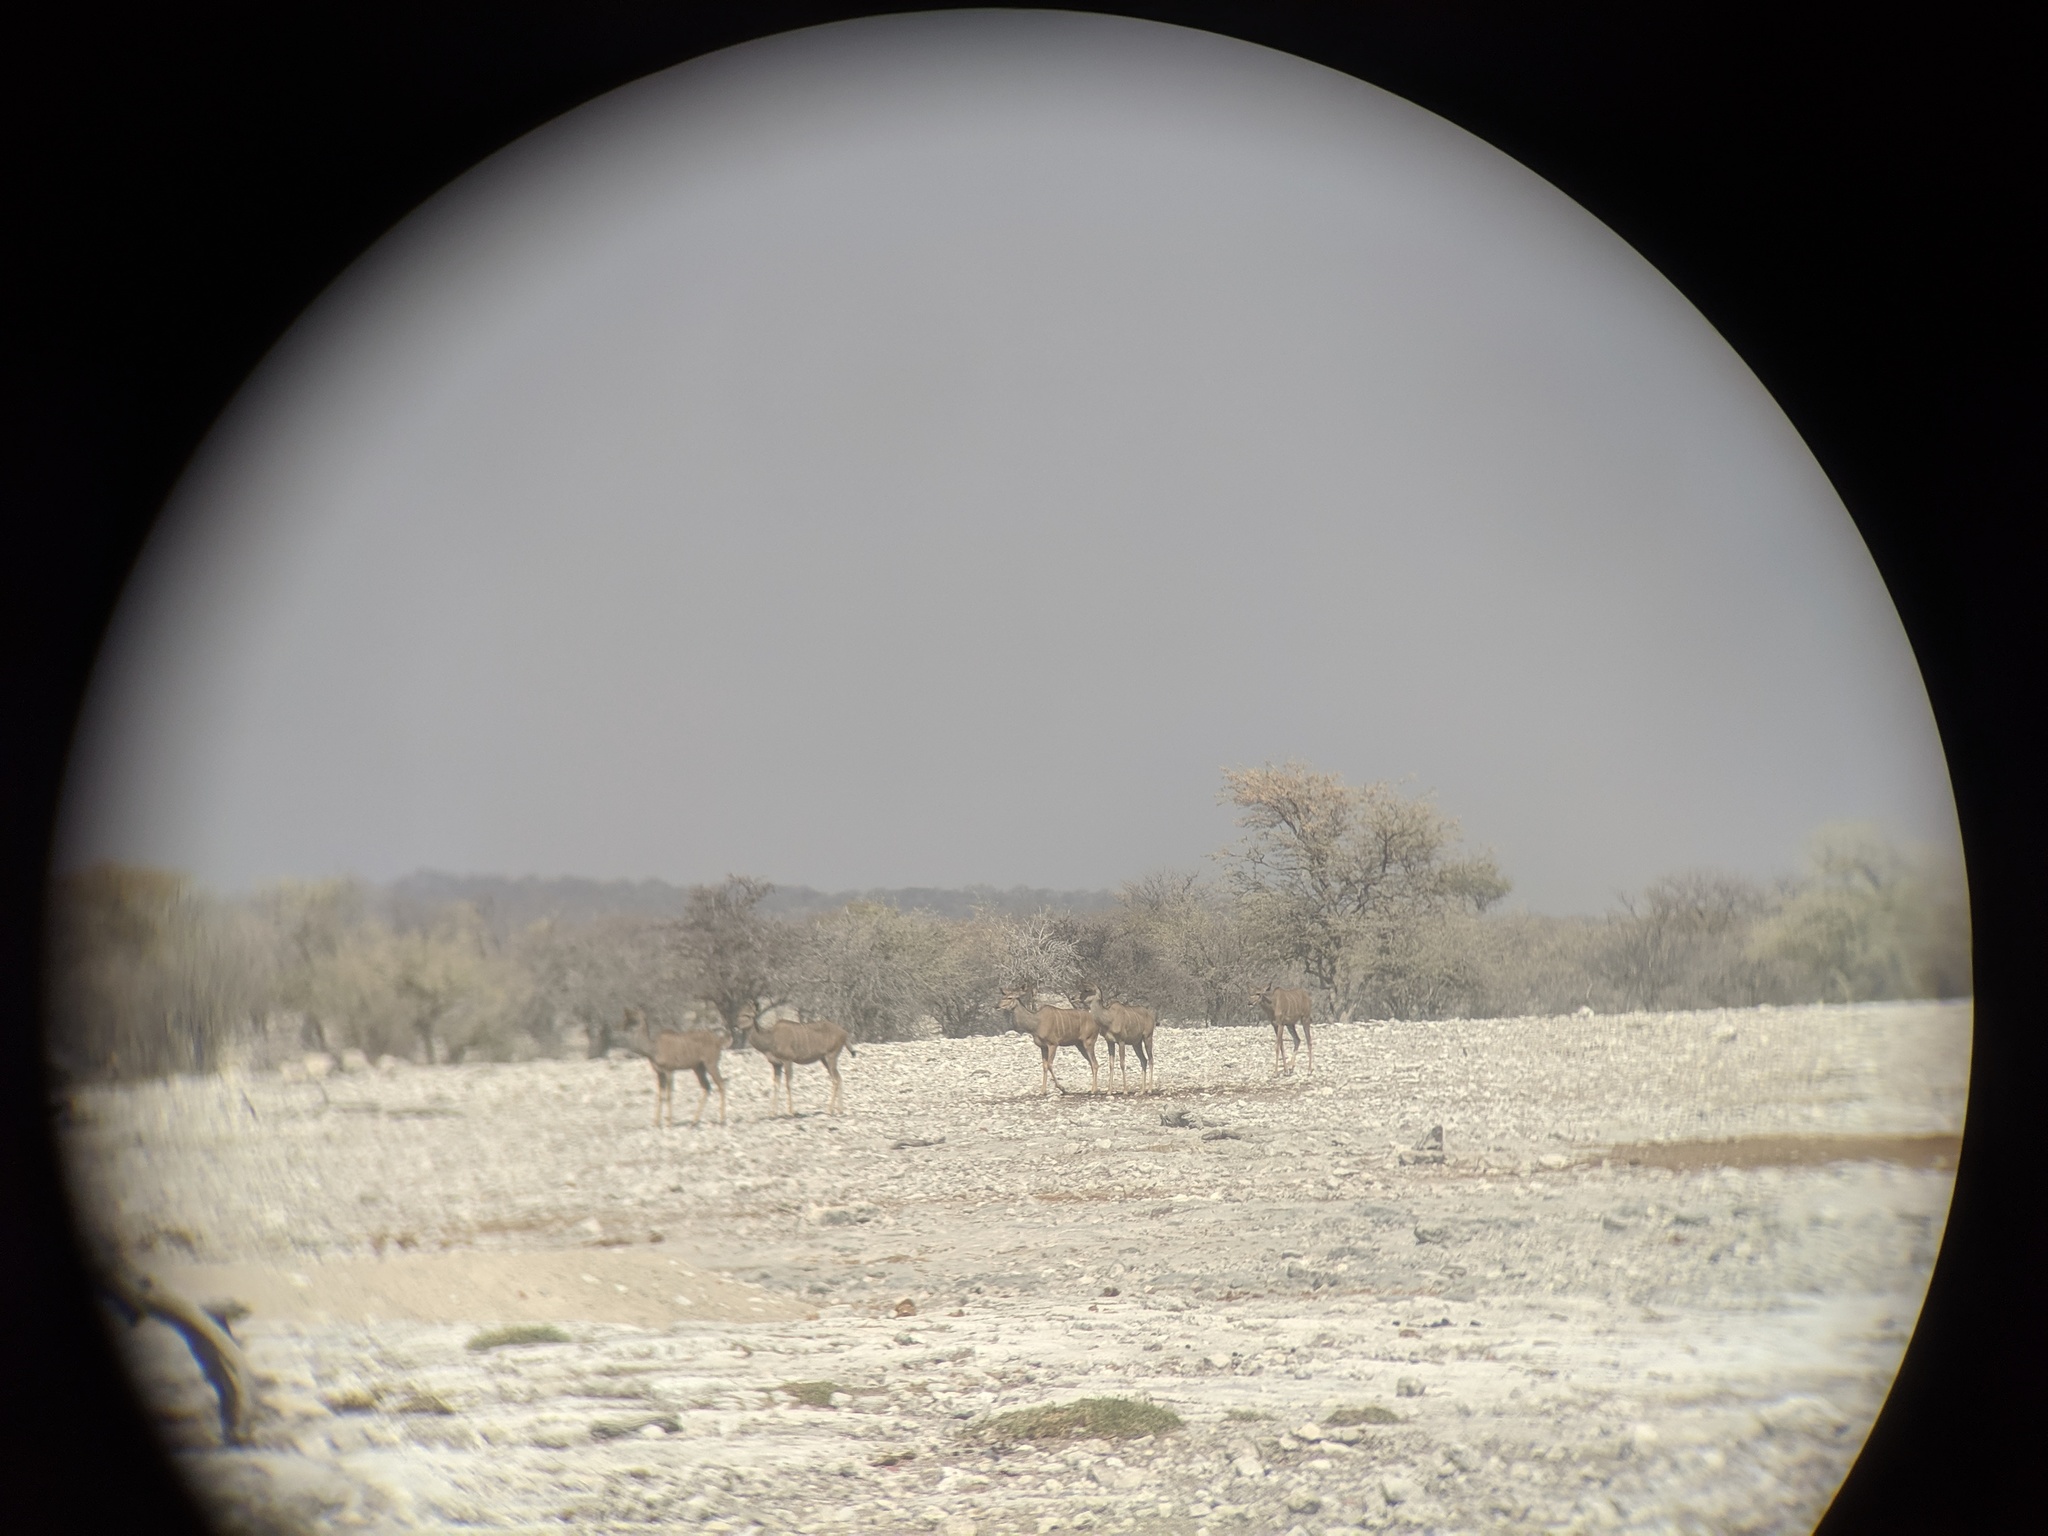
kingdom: Animalia
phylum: Chordata
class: Mammalia
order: Artiodactyla
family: Bovidae
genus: Tragelaphus
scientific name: Tragelaphus strepsiceros
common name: Greater kudu
